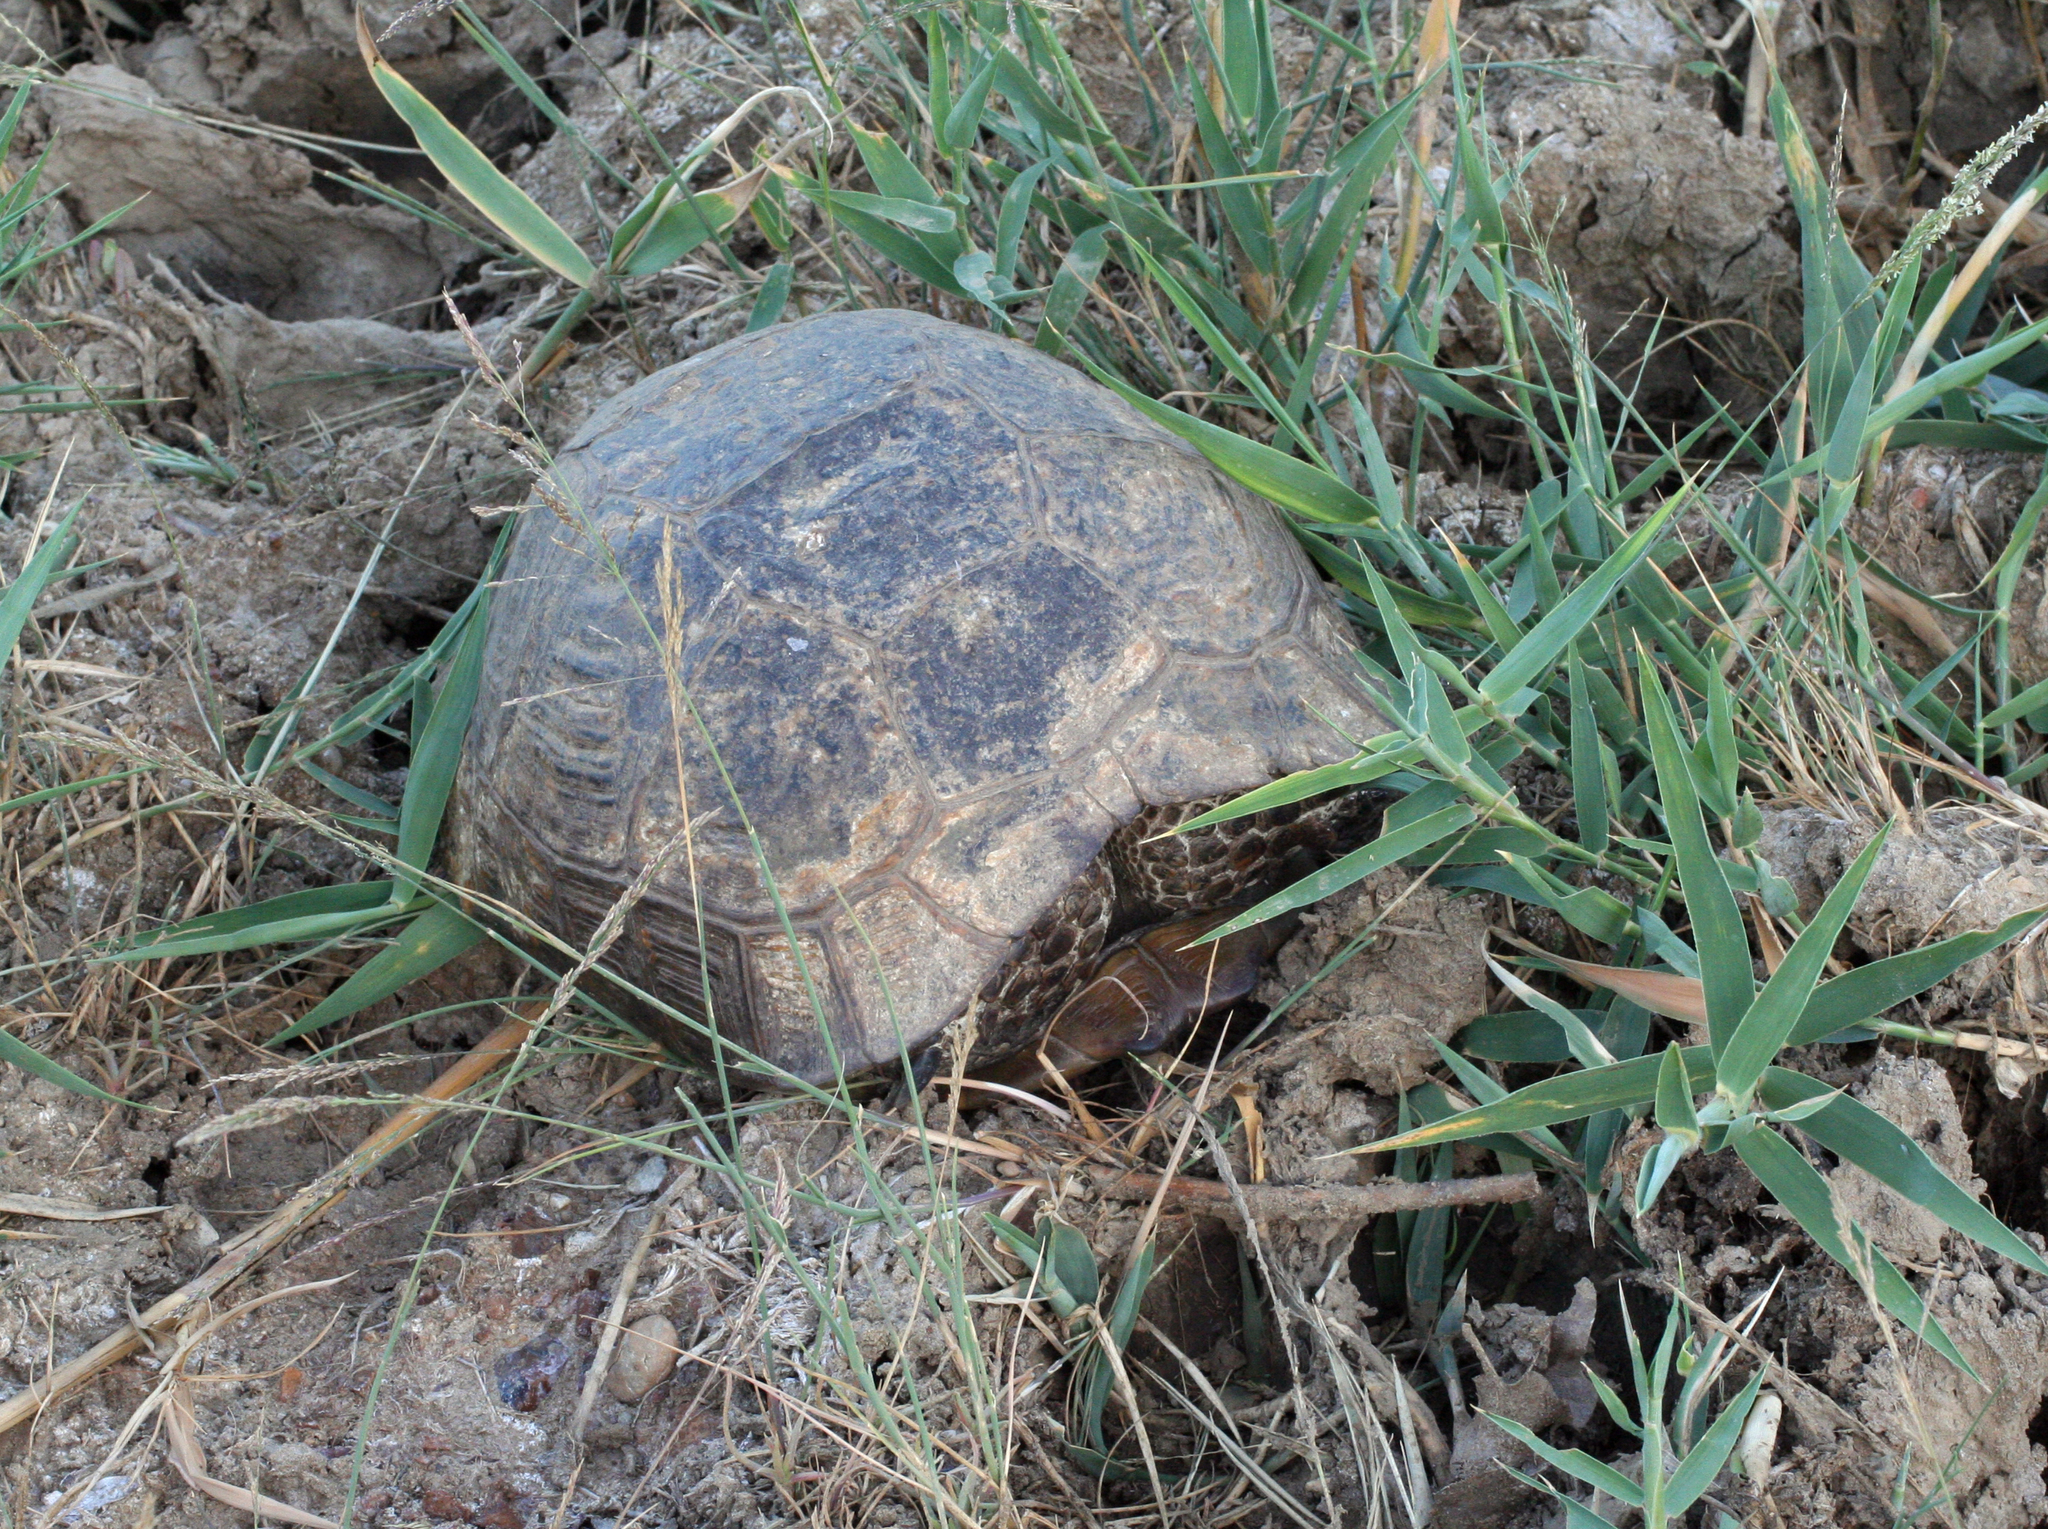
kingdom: Animalia
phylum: Chordata
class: Testudines
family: Testudinidae
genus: Testudo
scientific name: Testudo graeca
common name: Common tortoise
